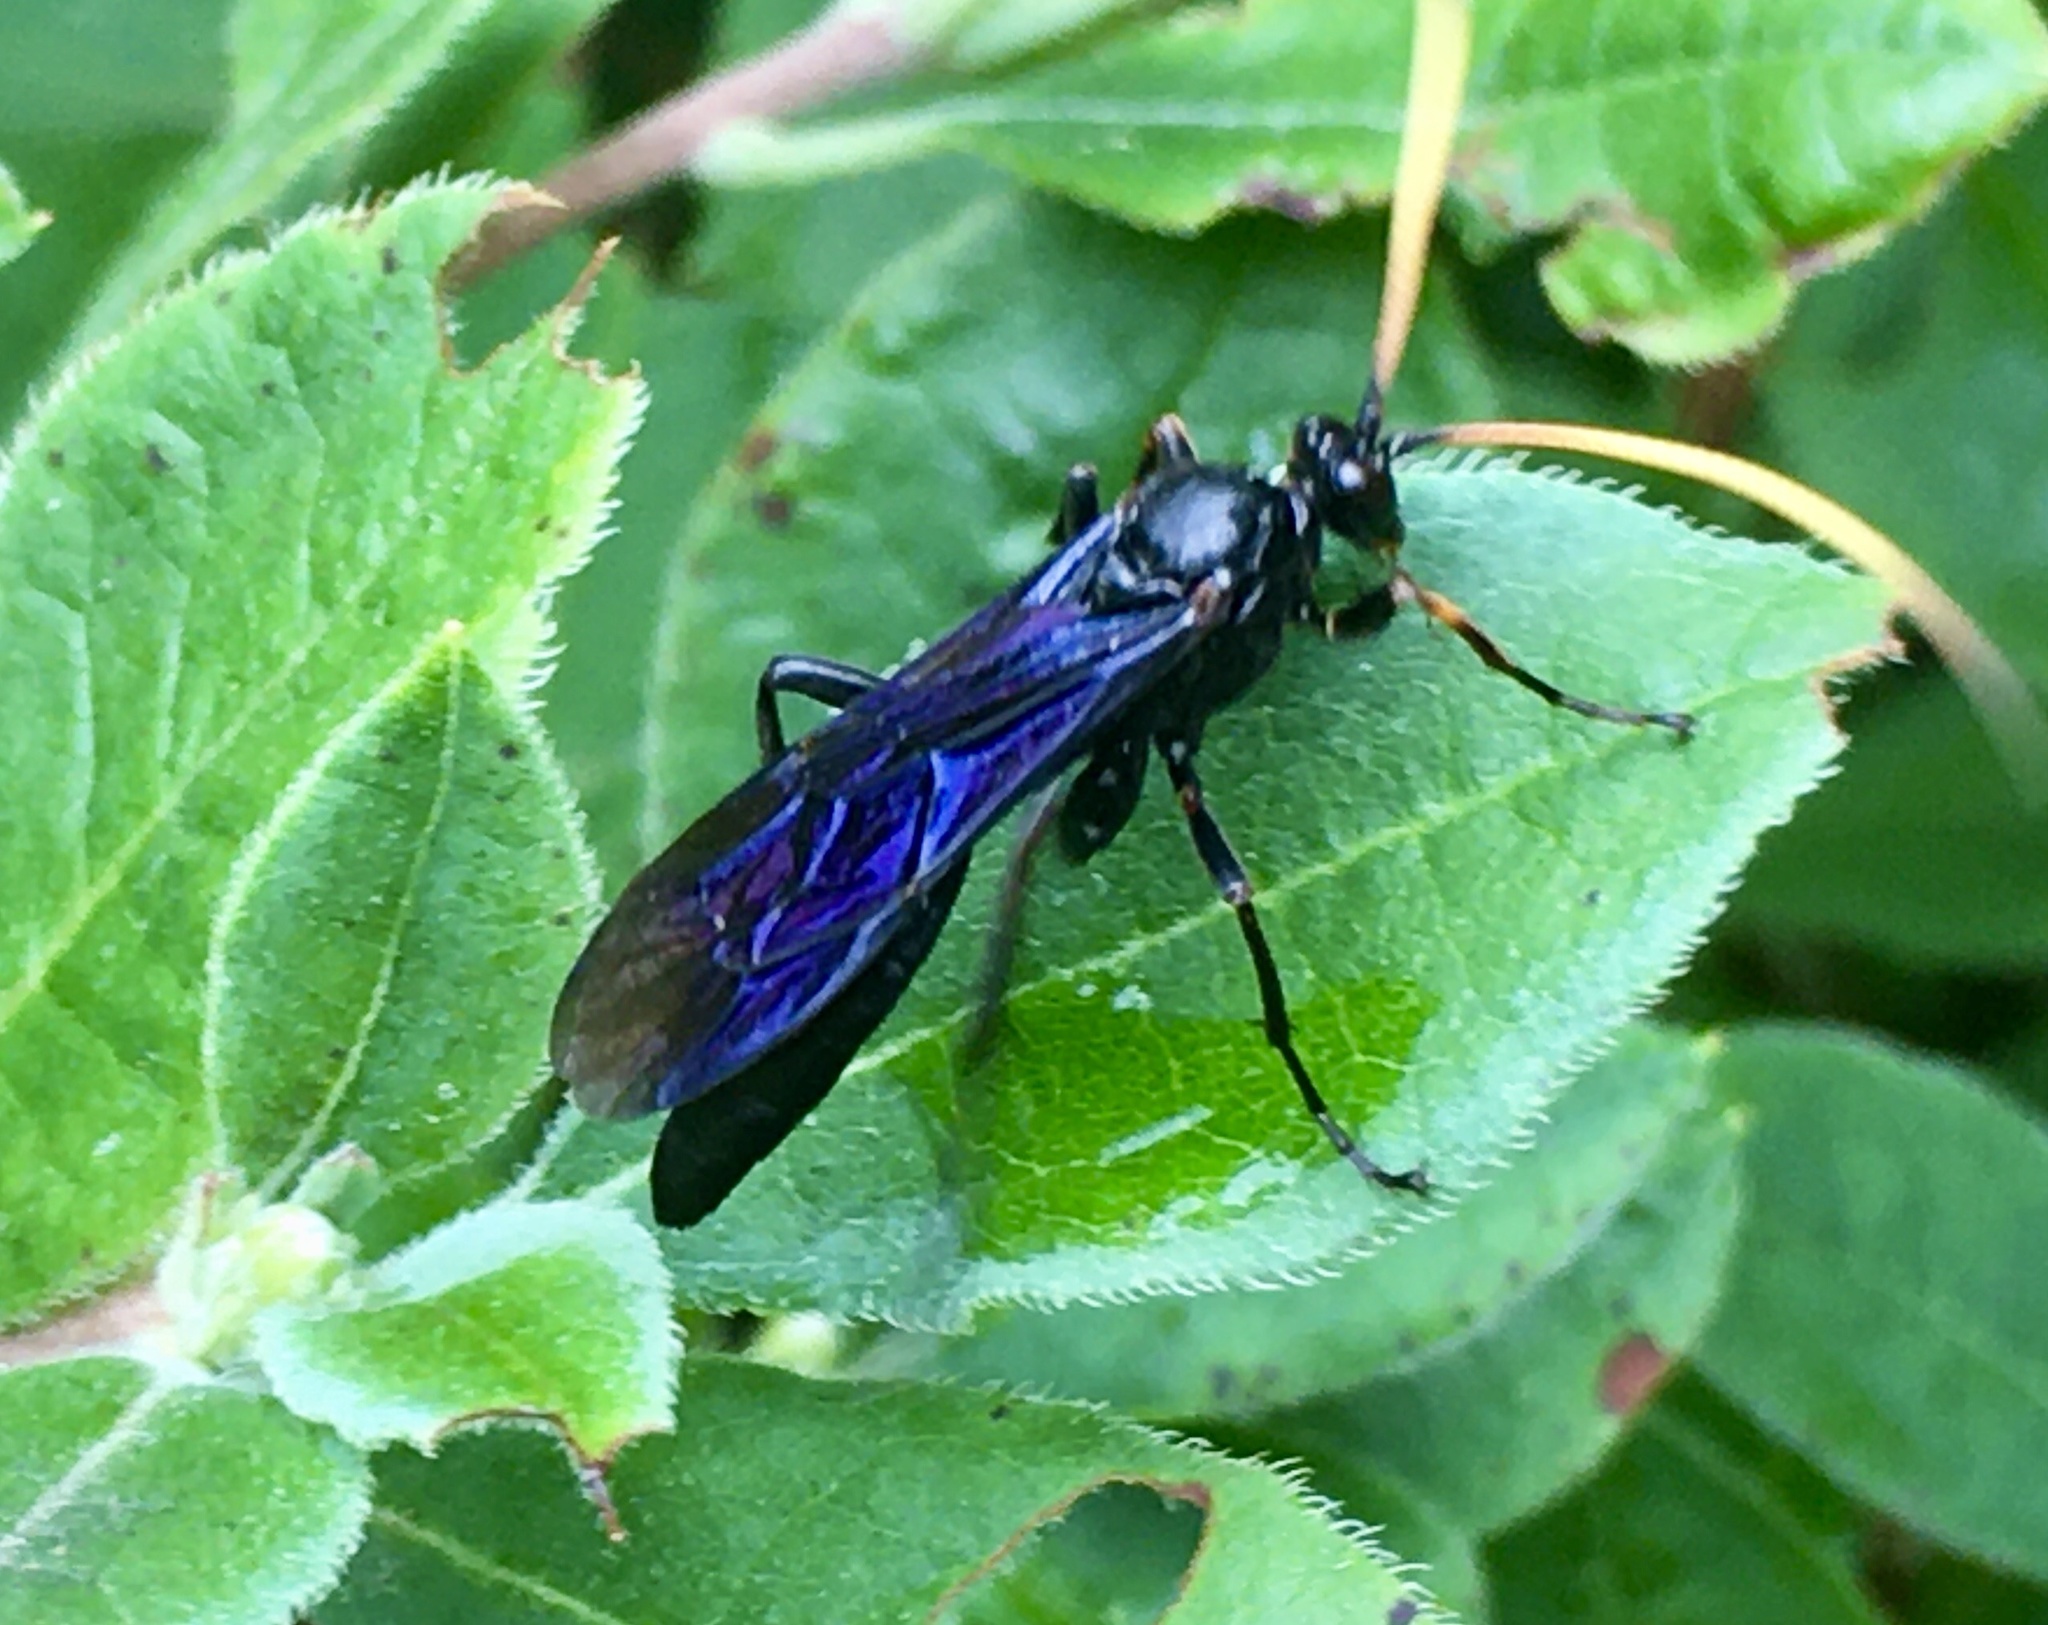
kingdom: Animalia
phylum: Arthropoda
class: Insecta
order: Hymenoptera
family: Ichneumonidae
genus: Ichneumon
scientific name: Ichneumon centrator
